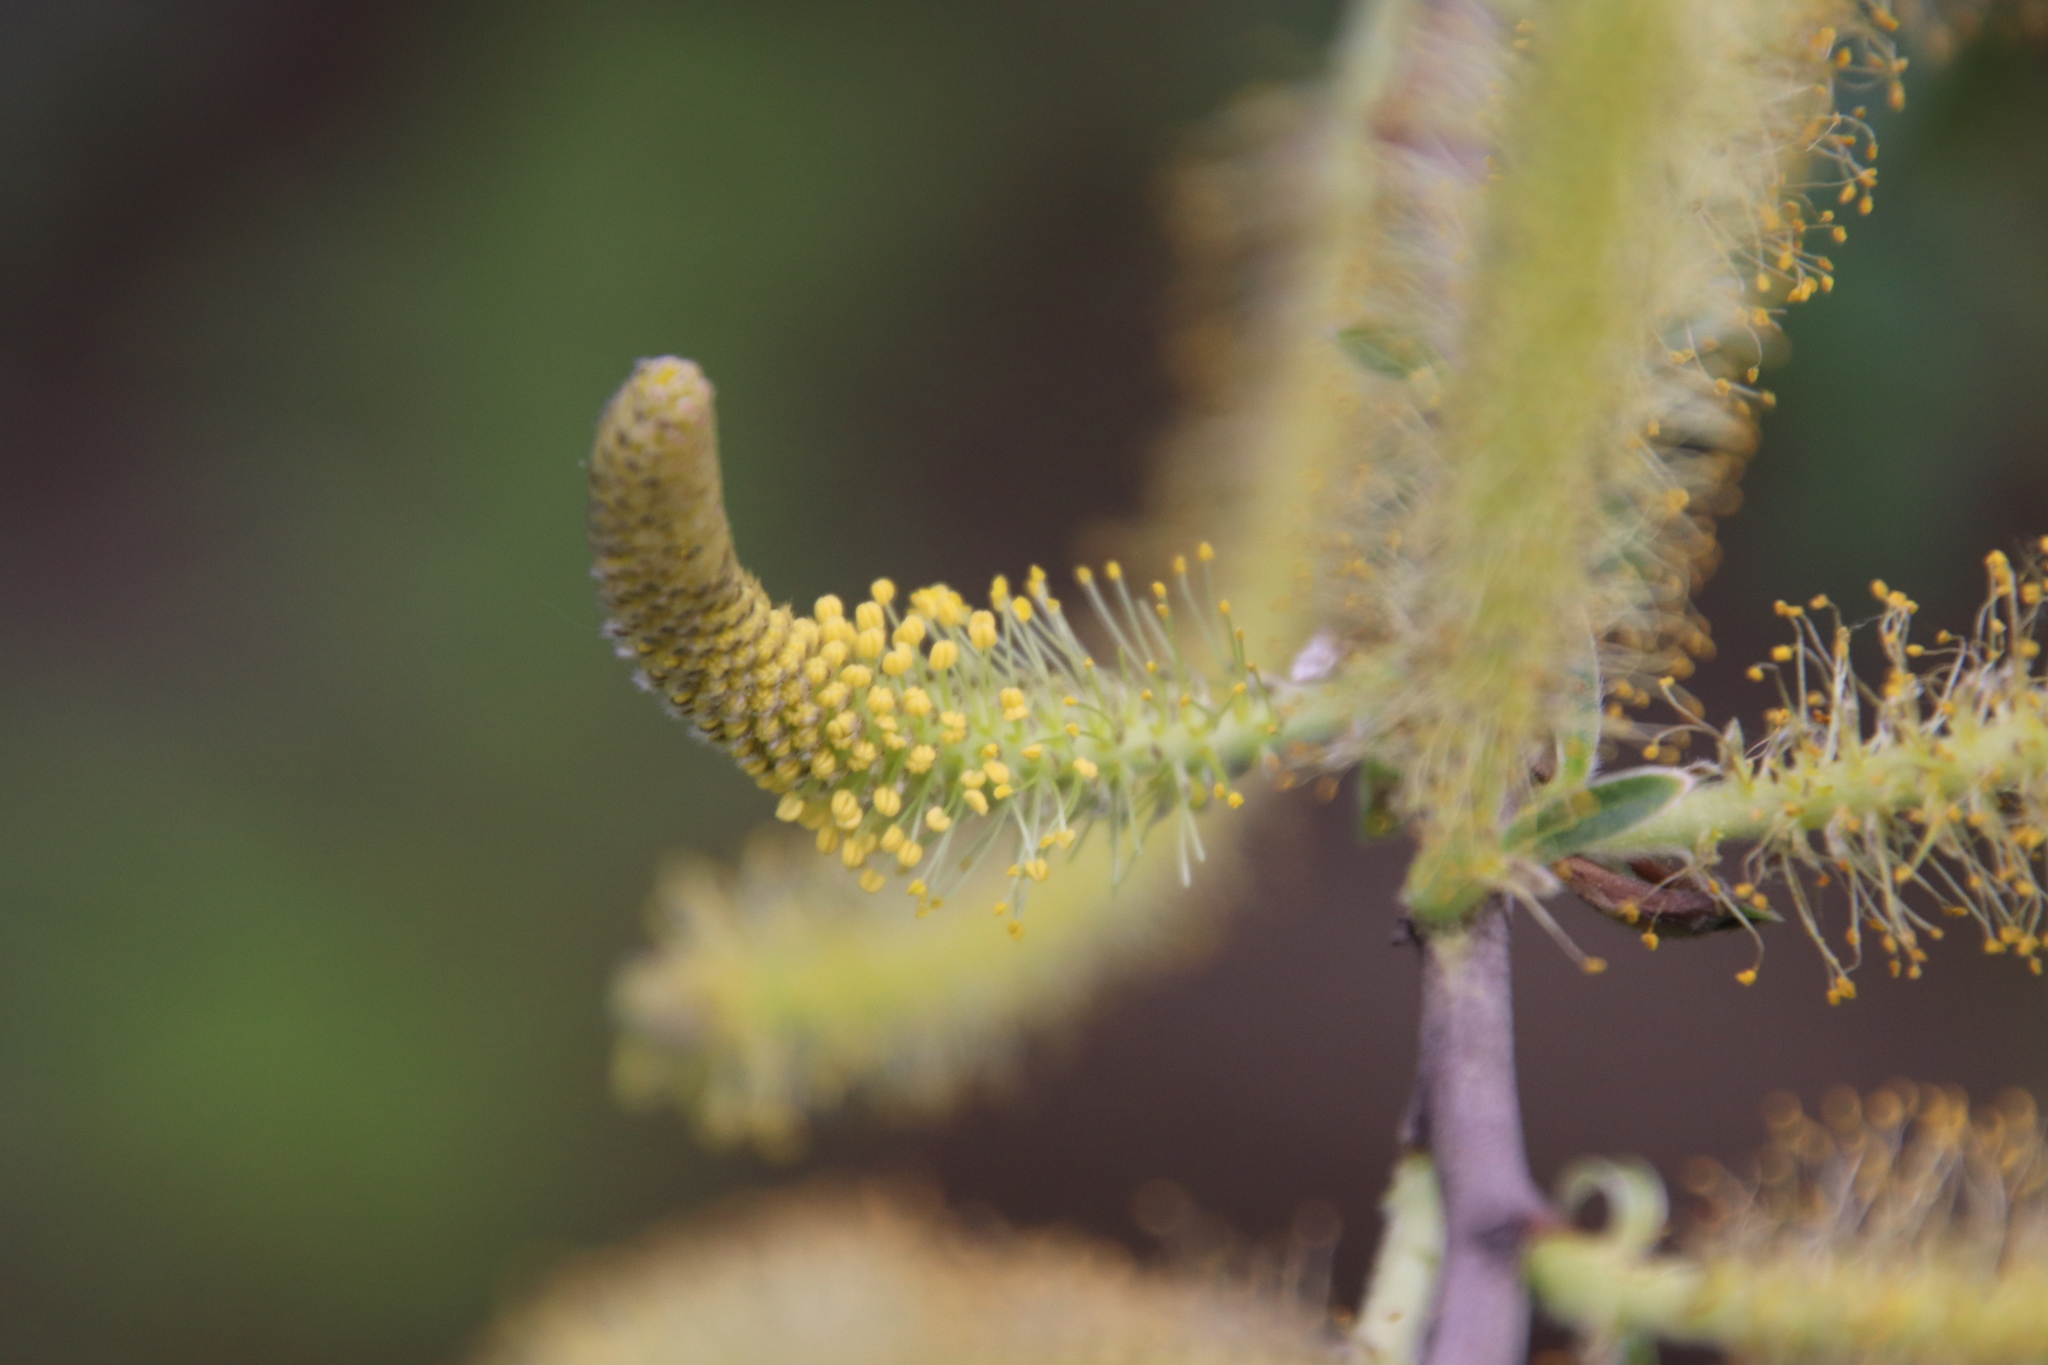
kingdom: Plantae
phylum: Tracheophyta
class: Magnoliopsida
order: Malpighiales
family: Salicaceae
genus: Salix
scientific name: Salix lasiolepis
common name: Arroyo willow
